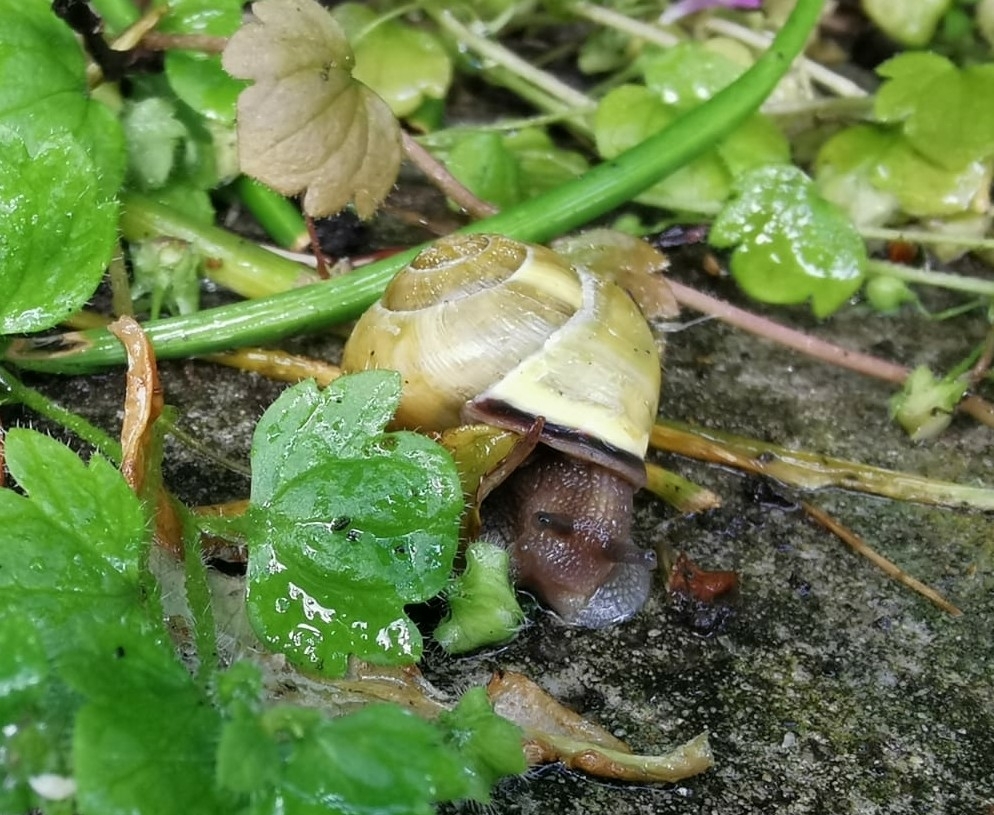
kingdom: Animalia
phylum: Mollusca
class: Gastropoda
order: Stylommatophora
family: Helicidae
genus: Cepaea
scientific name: Cepaea nemoralis
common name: Grovesnail
